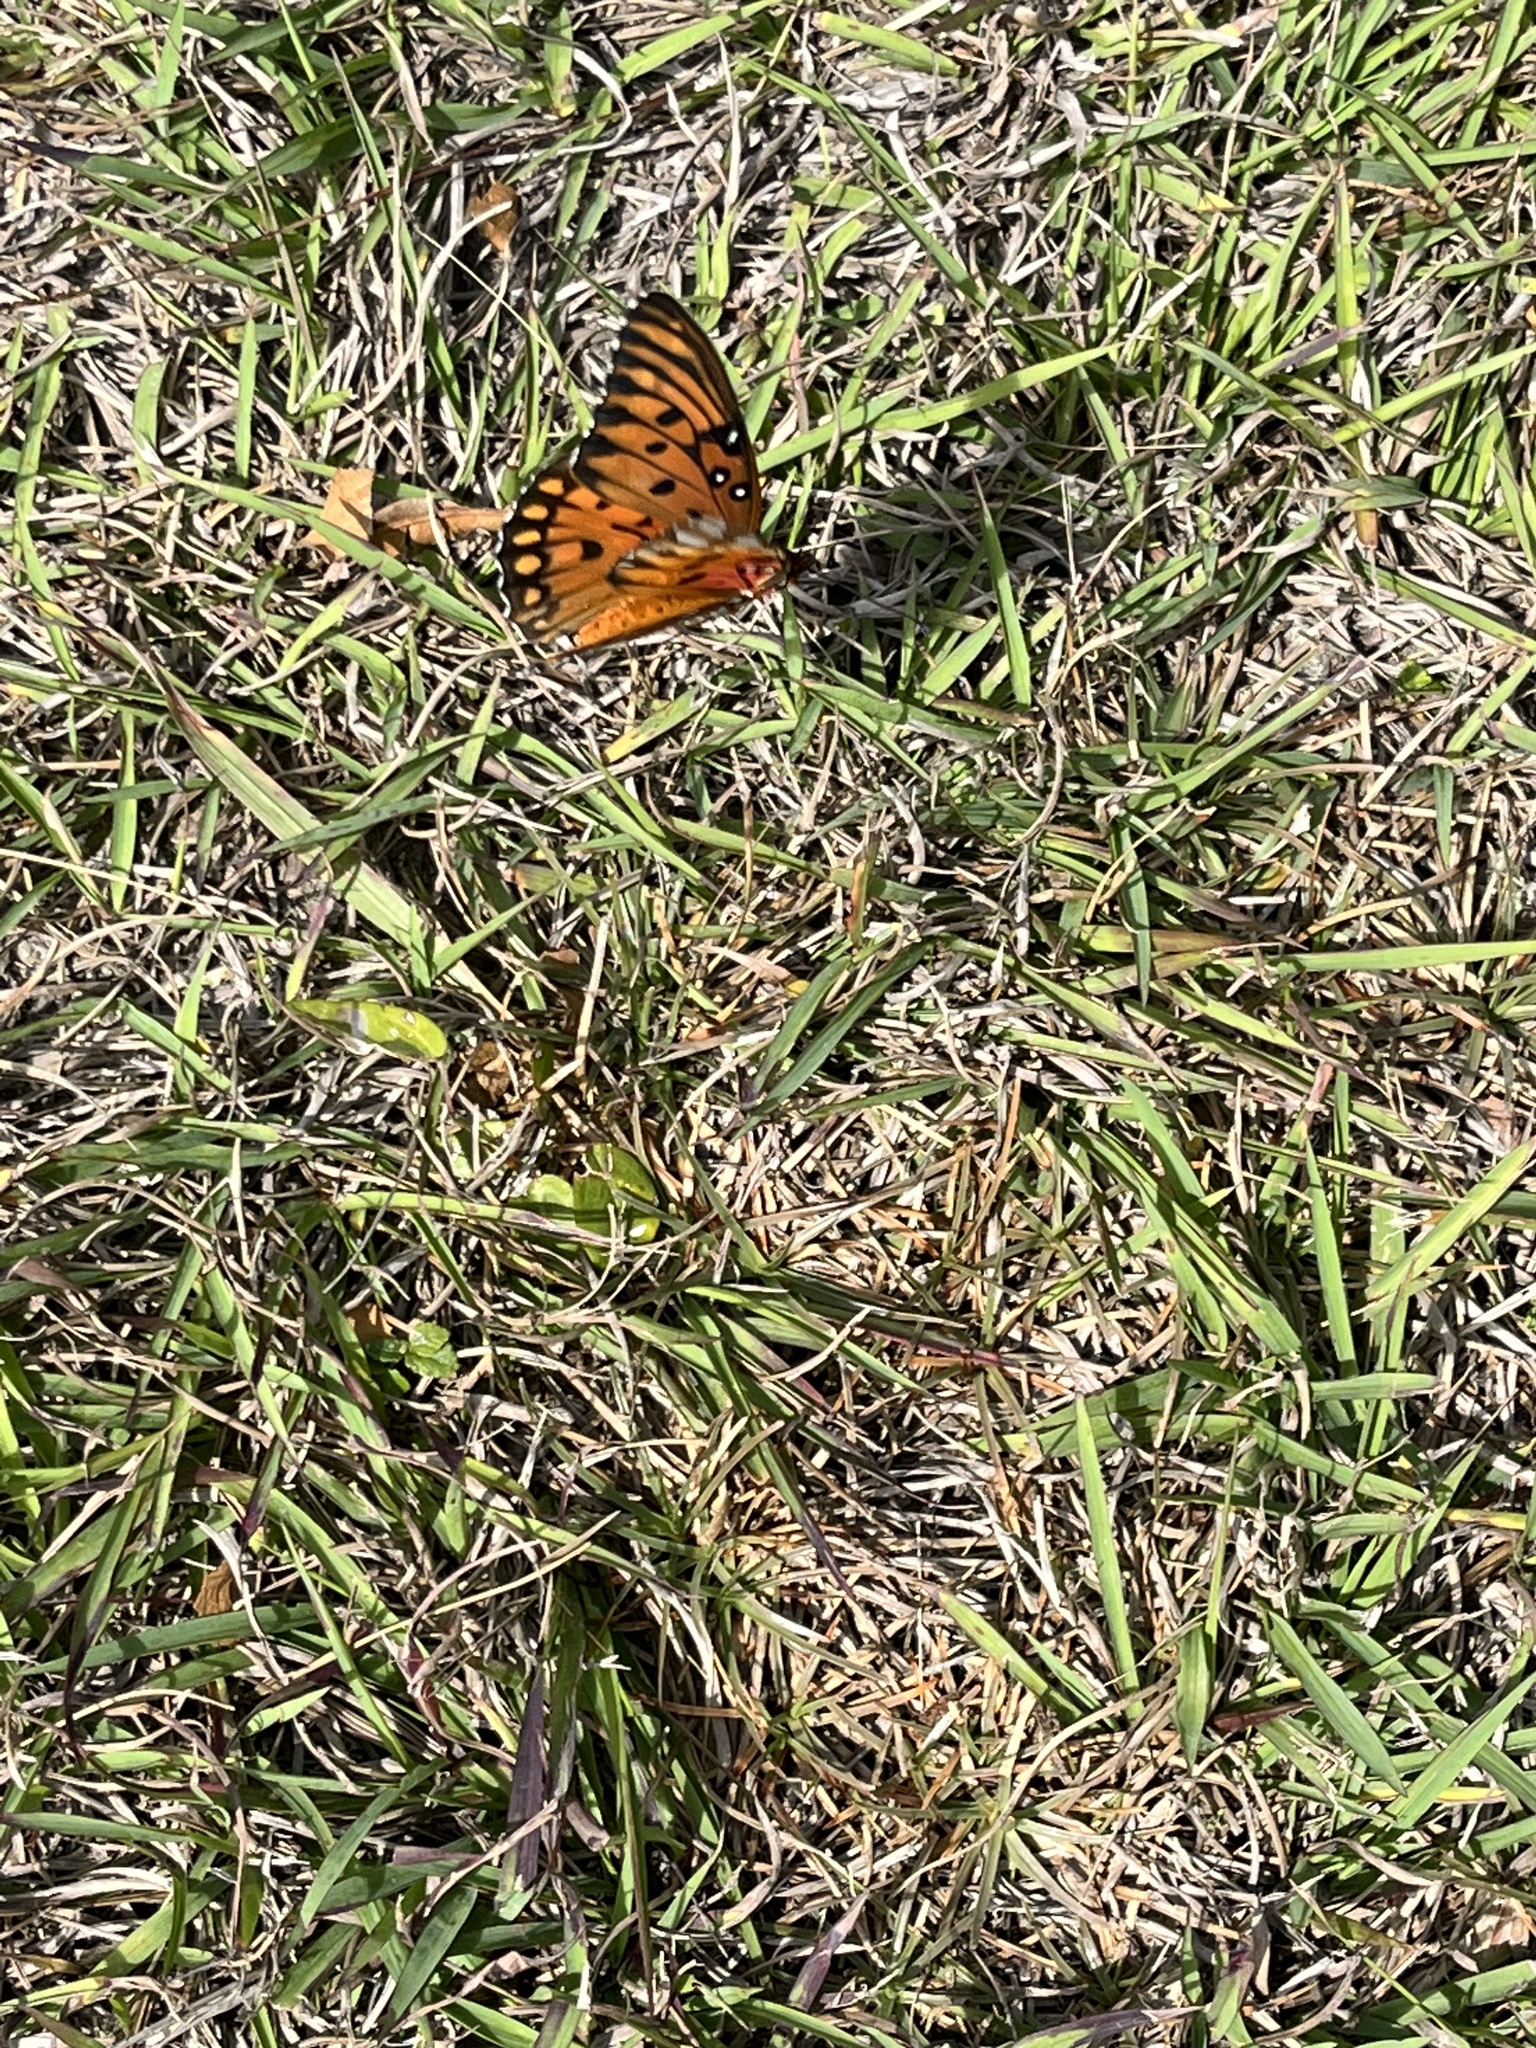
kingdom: Animalia
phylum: Arthropoda
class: Insecta
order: Lepidoptera
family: Nymphalidae
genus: Dione
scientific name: Dione vanillae
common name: Gulf fritillary
